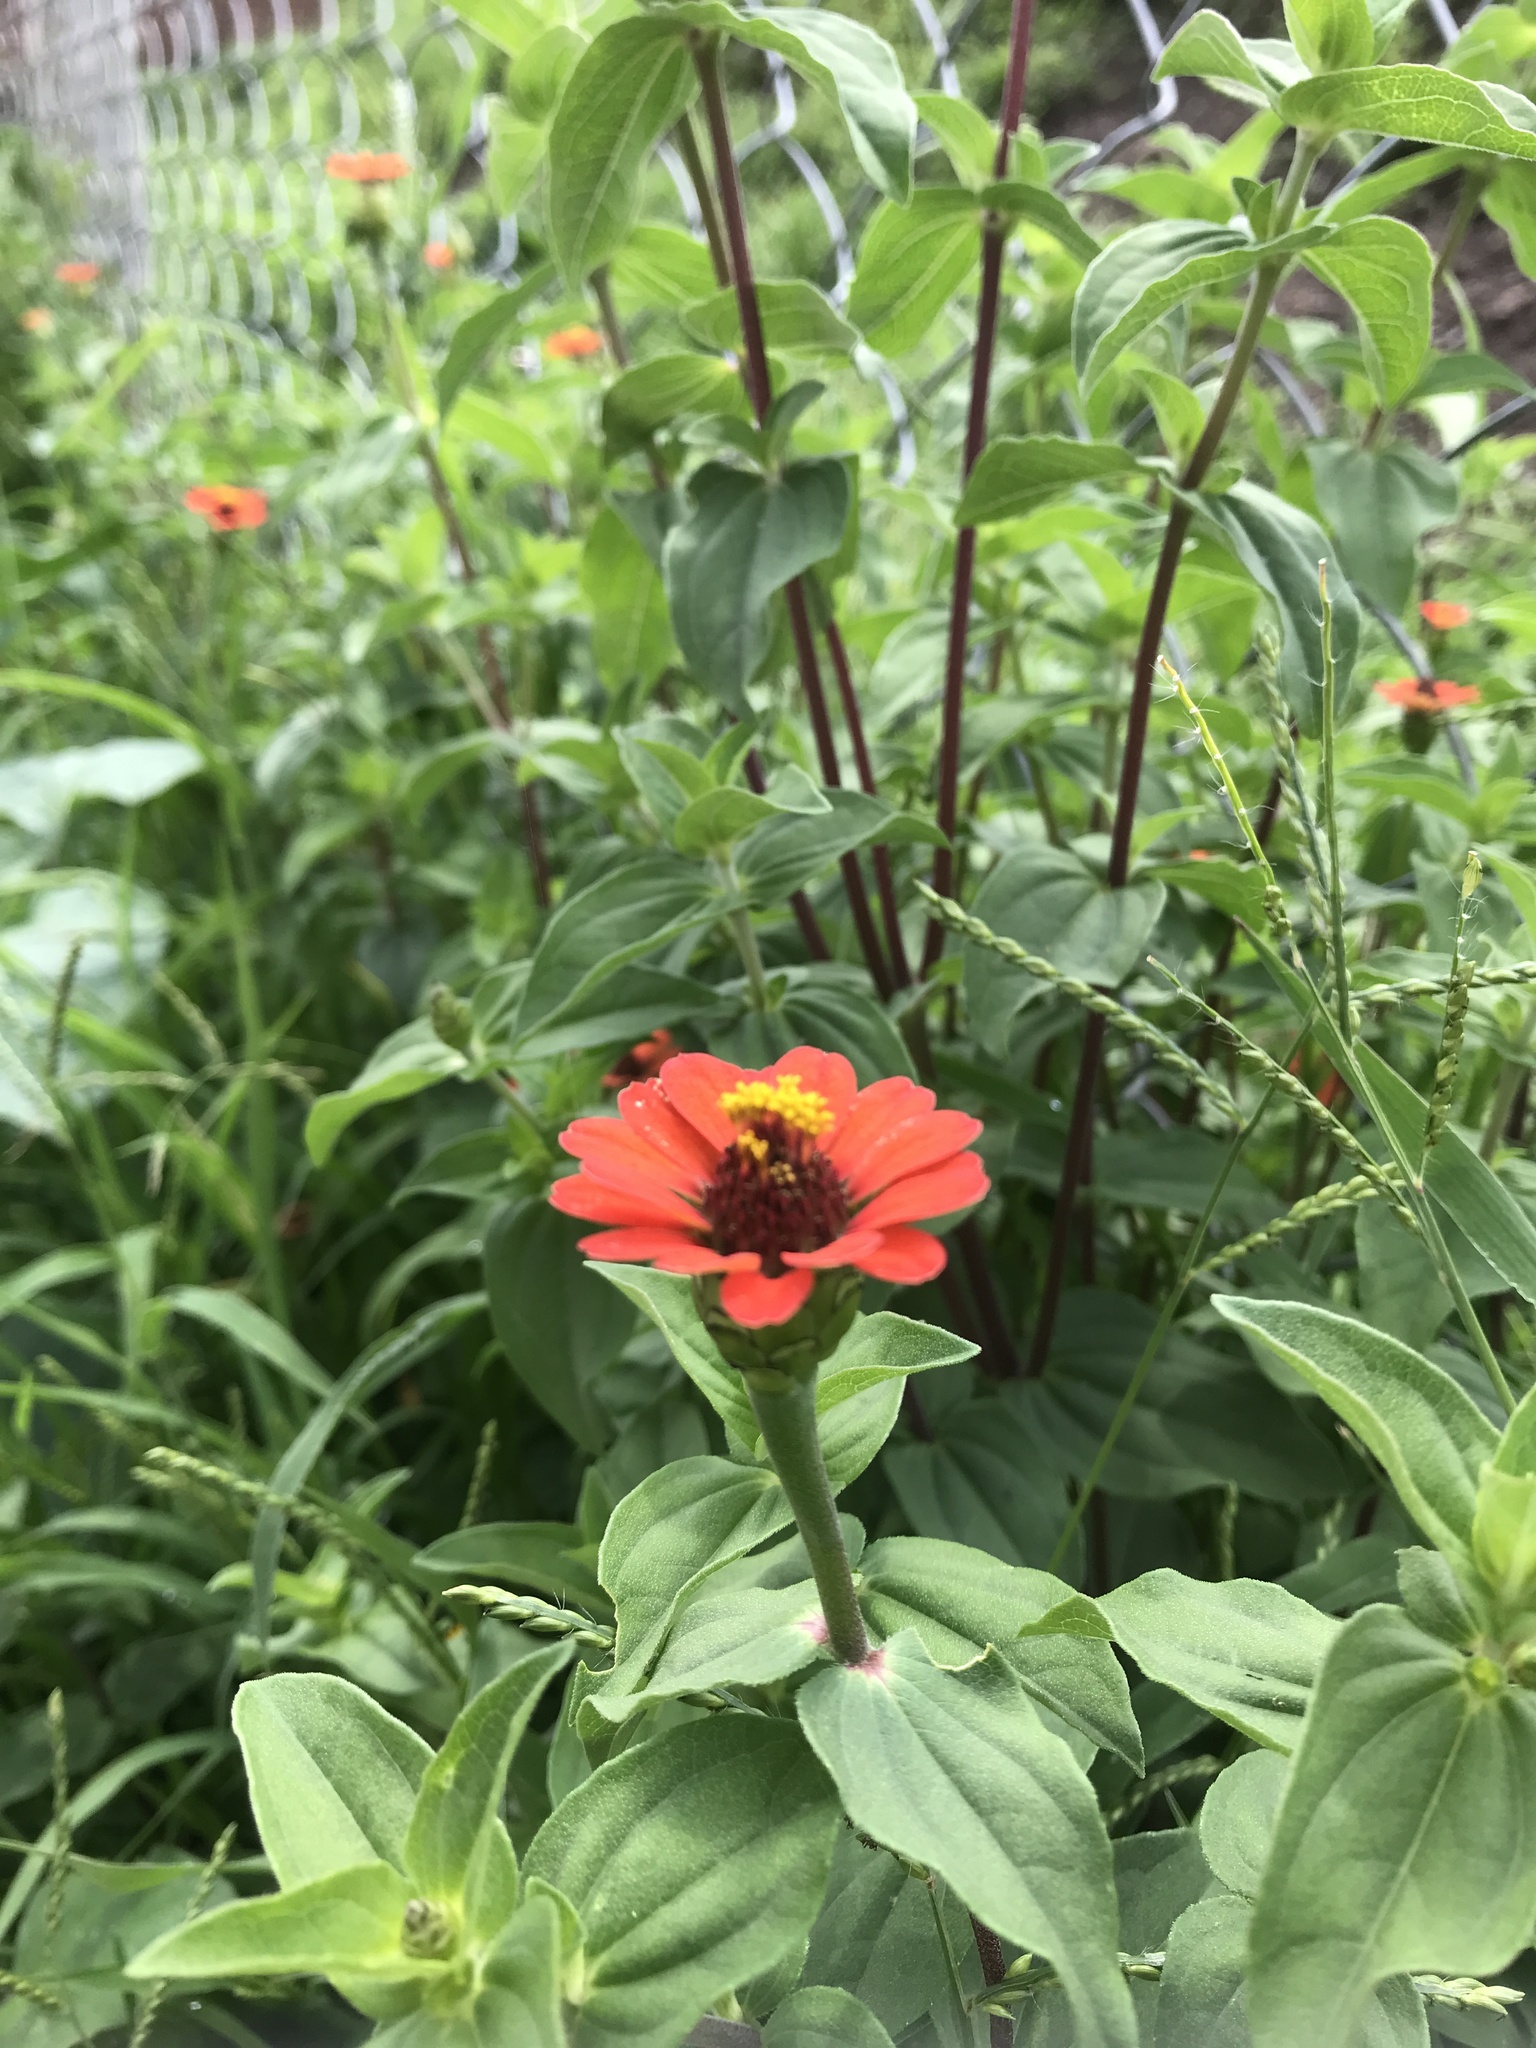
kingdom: Plantae
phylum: Tracheophyta
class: Magnoliopsida
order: Asterales
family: Asteraceae
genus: Zinnia
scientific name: Zinnia peruviana
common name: Peruvian zinnia
